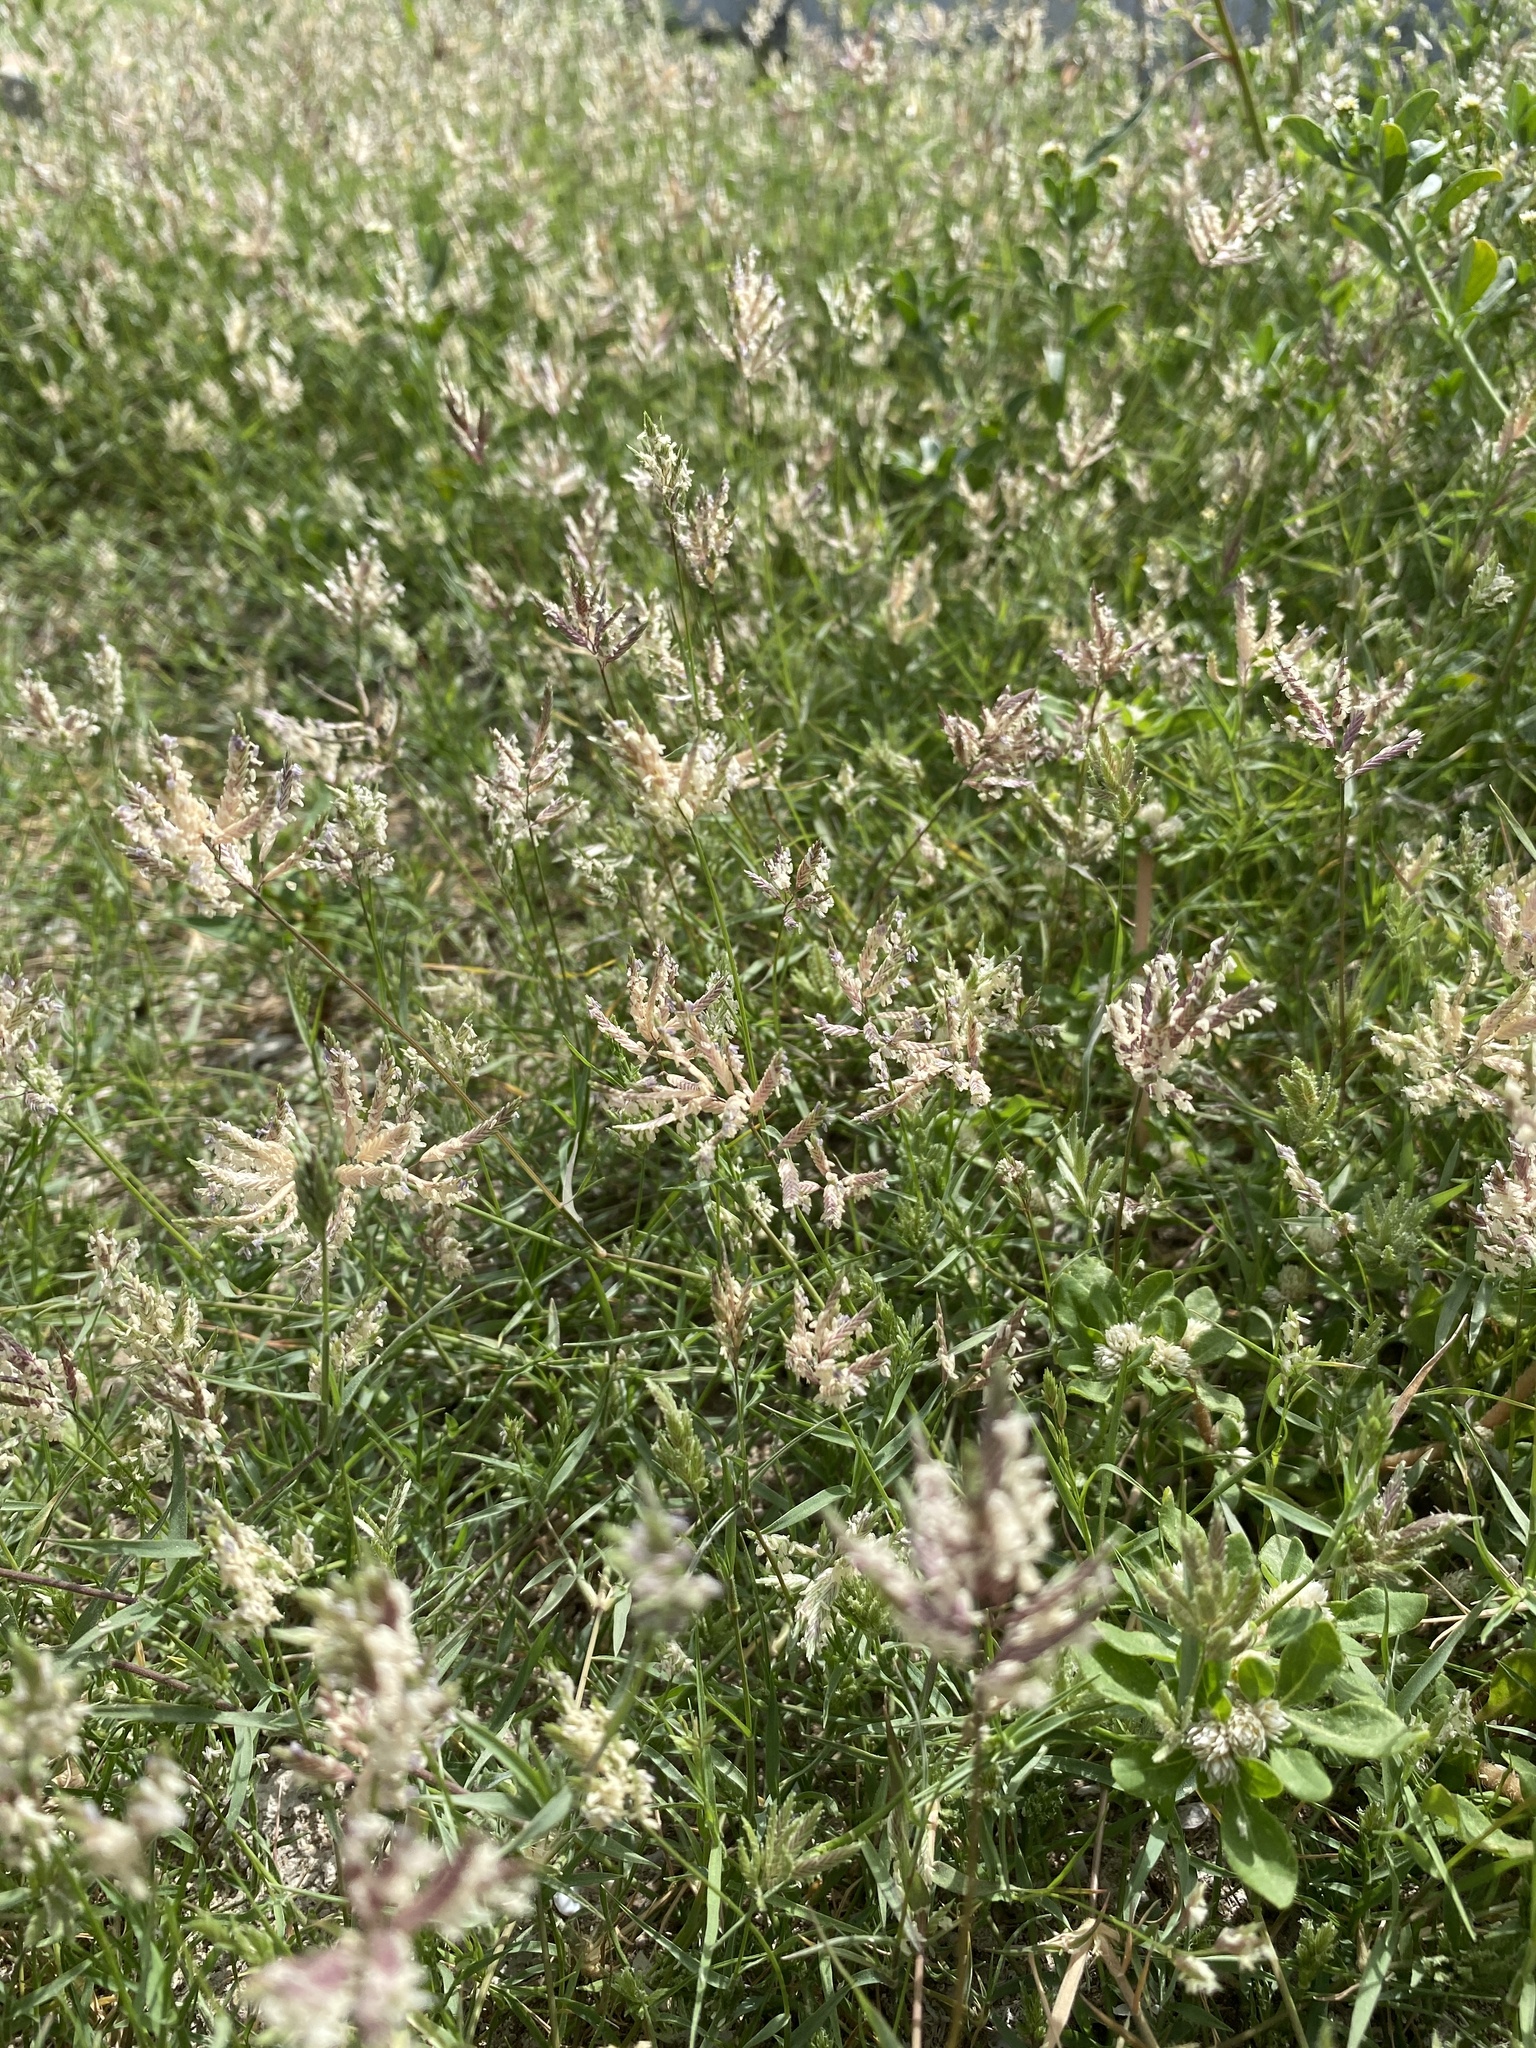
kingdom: Plantae
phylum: Tracheophyta
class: Liliopsida
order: Poales
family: Poaceae
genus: Eragrostis
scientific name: Eragrostis reptans
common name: Creeping love grass
